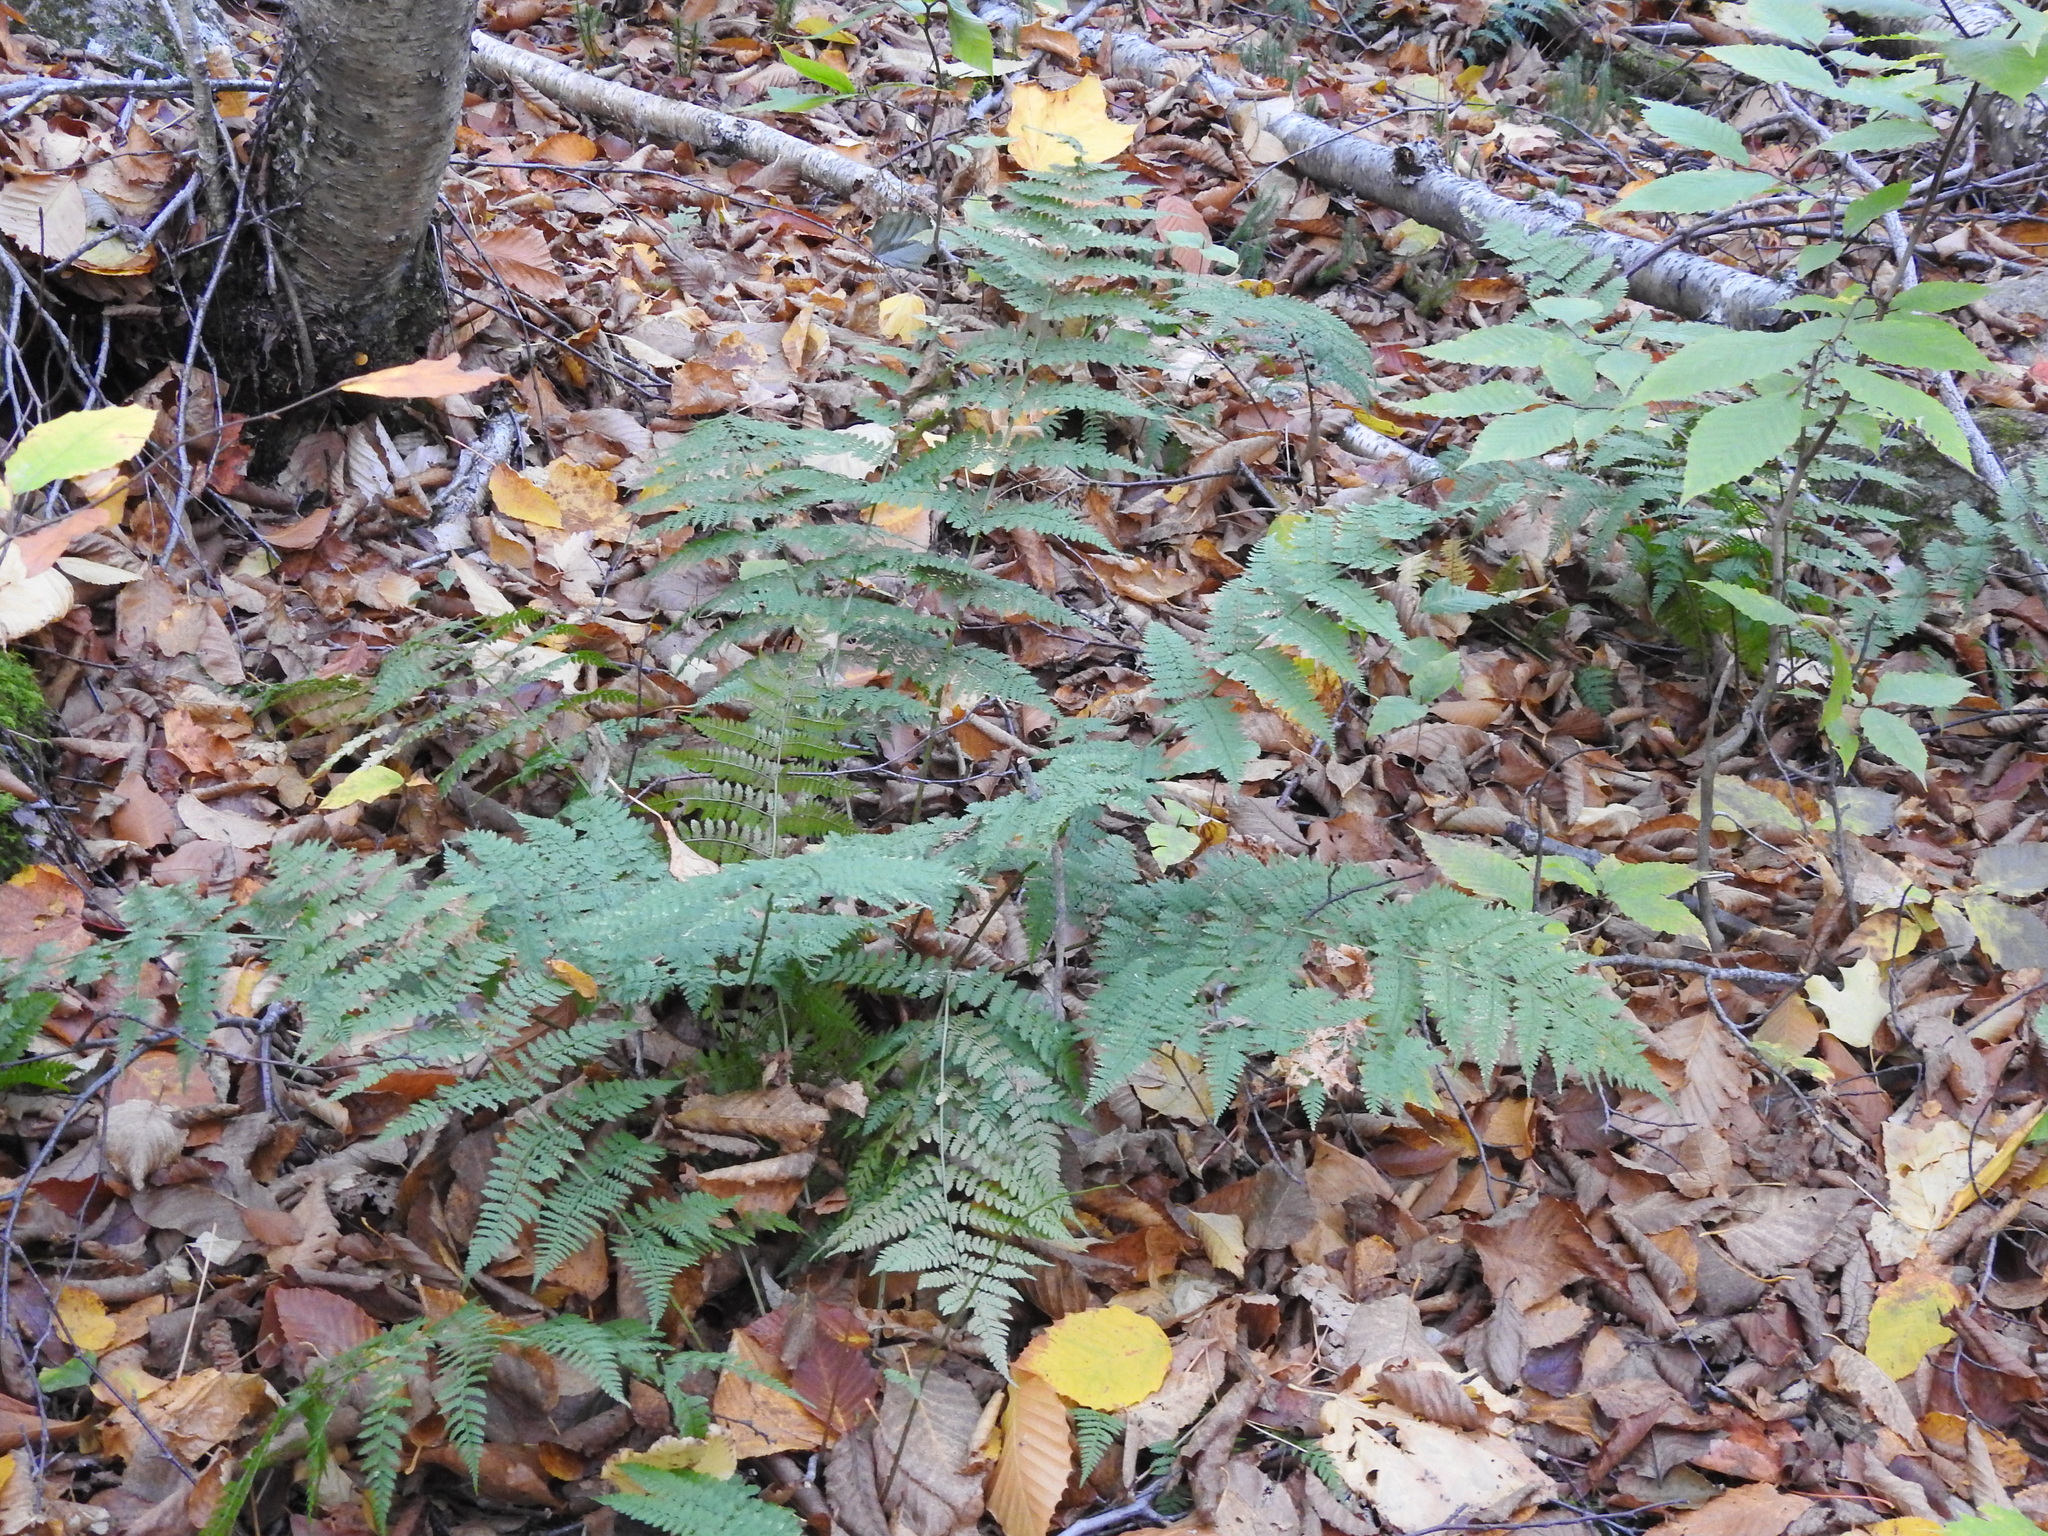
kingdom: Plantae
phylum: Tracheophyta
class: Polypodiopsida
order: Polypodiales
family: Dryopteridaceae
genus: Dryopteris
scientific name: Dryopteris intermedia
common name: Evergreen wood fern
